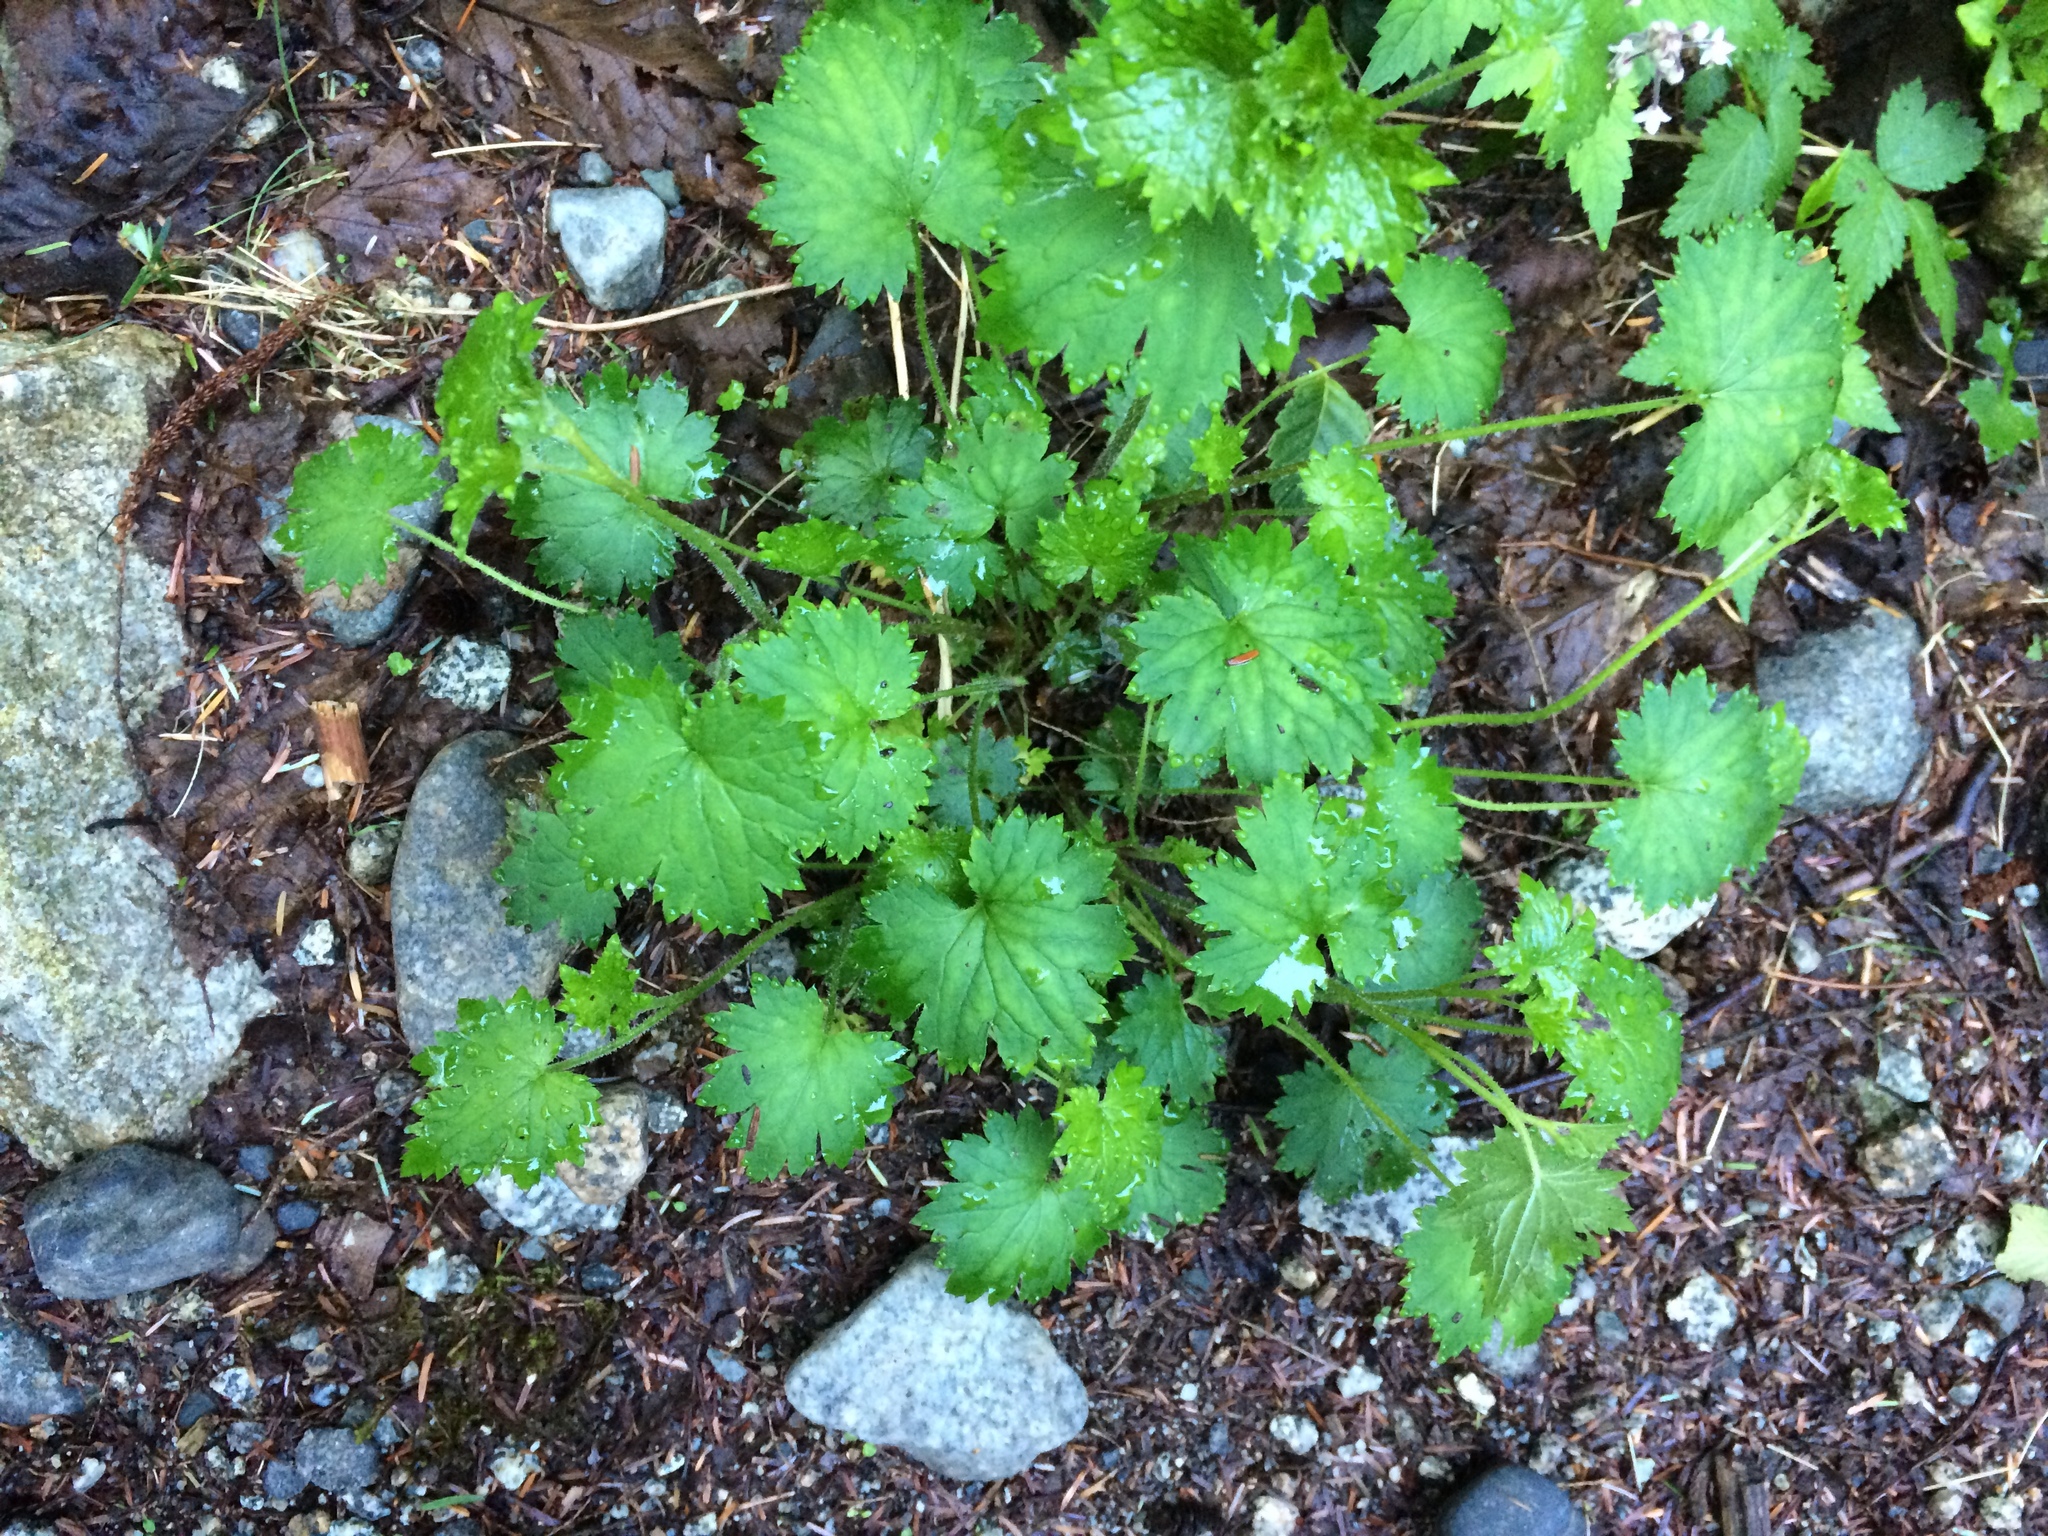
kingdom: Plantae
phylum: Tracheophyta
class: Magnoliopsida
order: Saxifragales
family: Saxifragaceae
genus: Boykinia
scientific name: Boykinia occidentalis
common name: Coast boykinia
